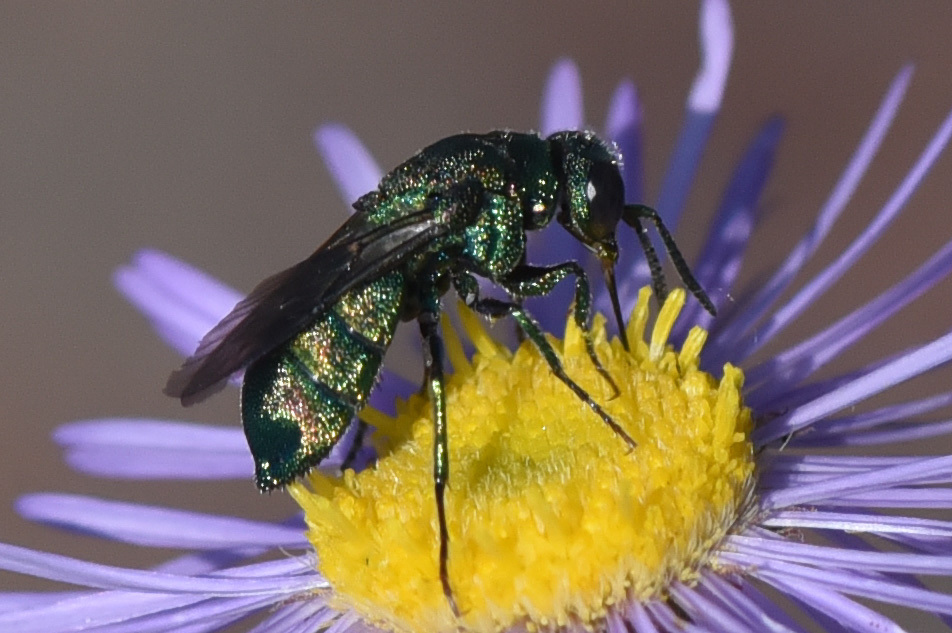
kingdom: Animalia
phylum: Arthropoda
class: Insecta
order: Hymenoptera
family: Chrysididae
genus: Parnopes
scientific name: Parnopes
